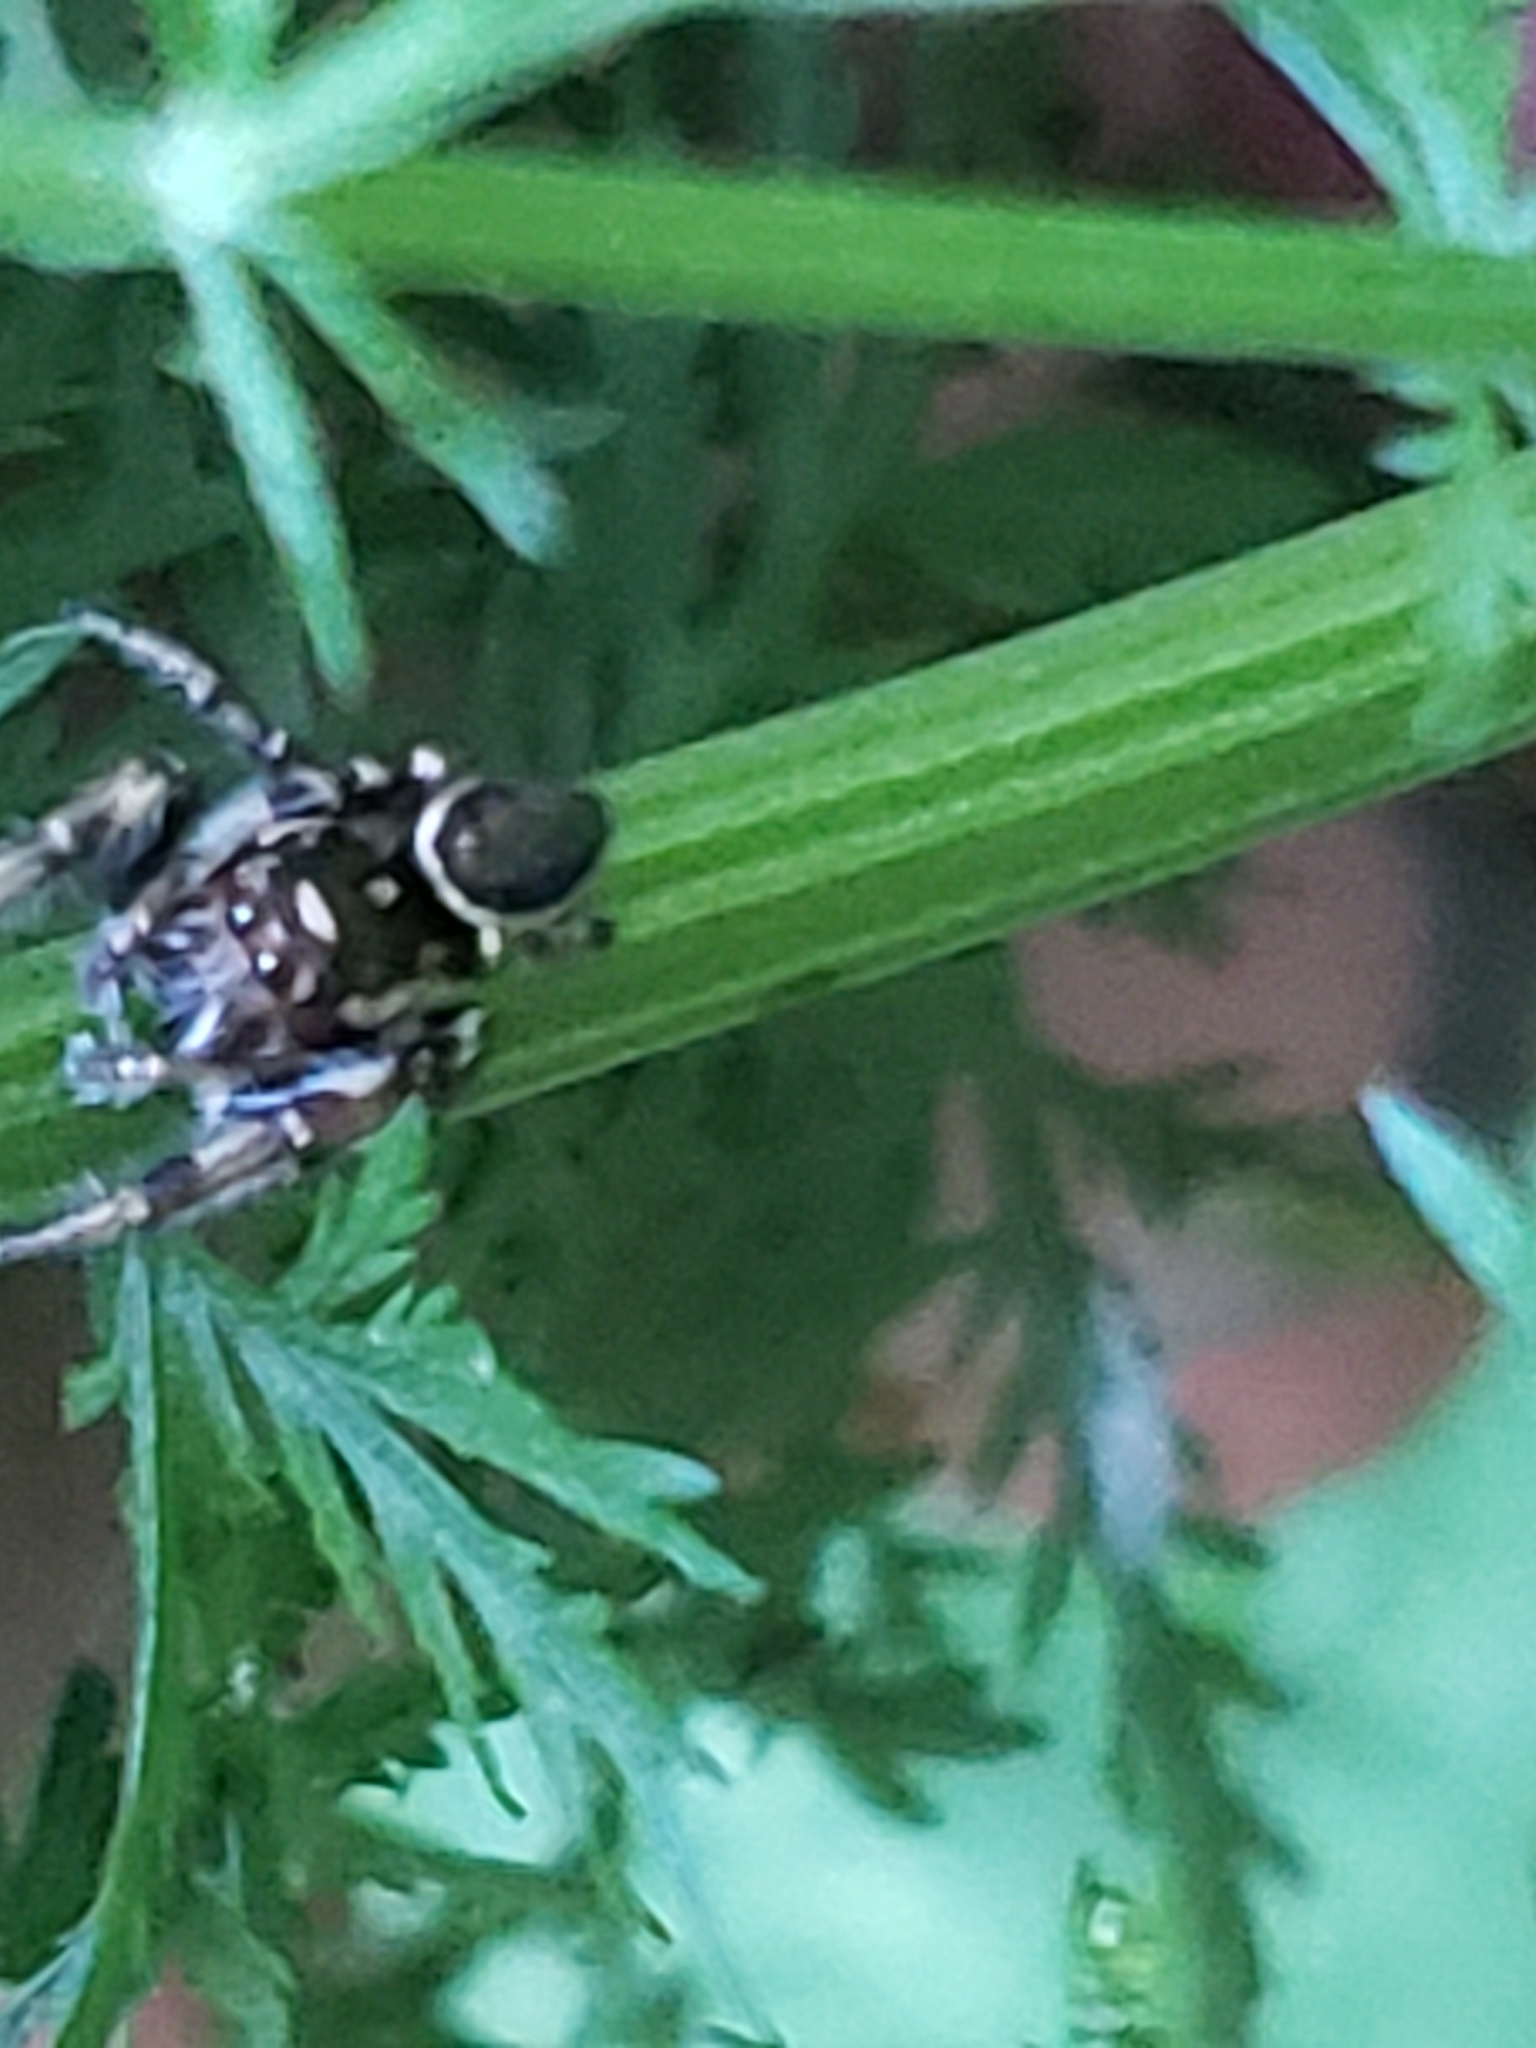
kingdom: Animalia
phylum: Arthropoda
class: Arachnida
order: Araneae
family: Salticidae
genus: Eris
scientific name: Eris militaris
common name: Bronze jumper
